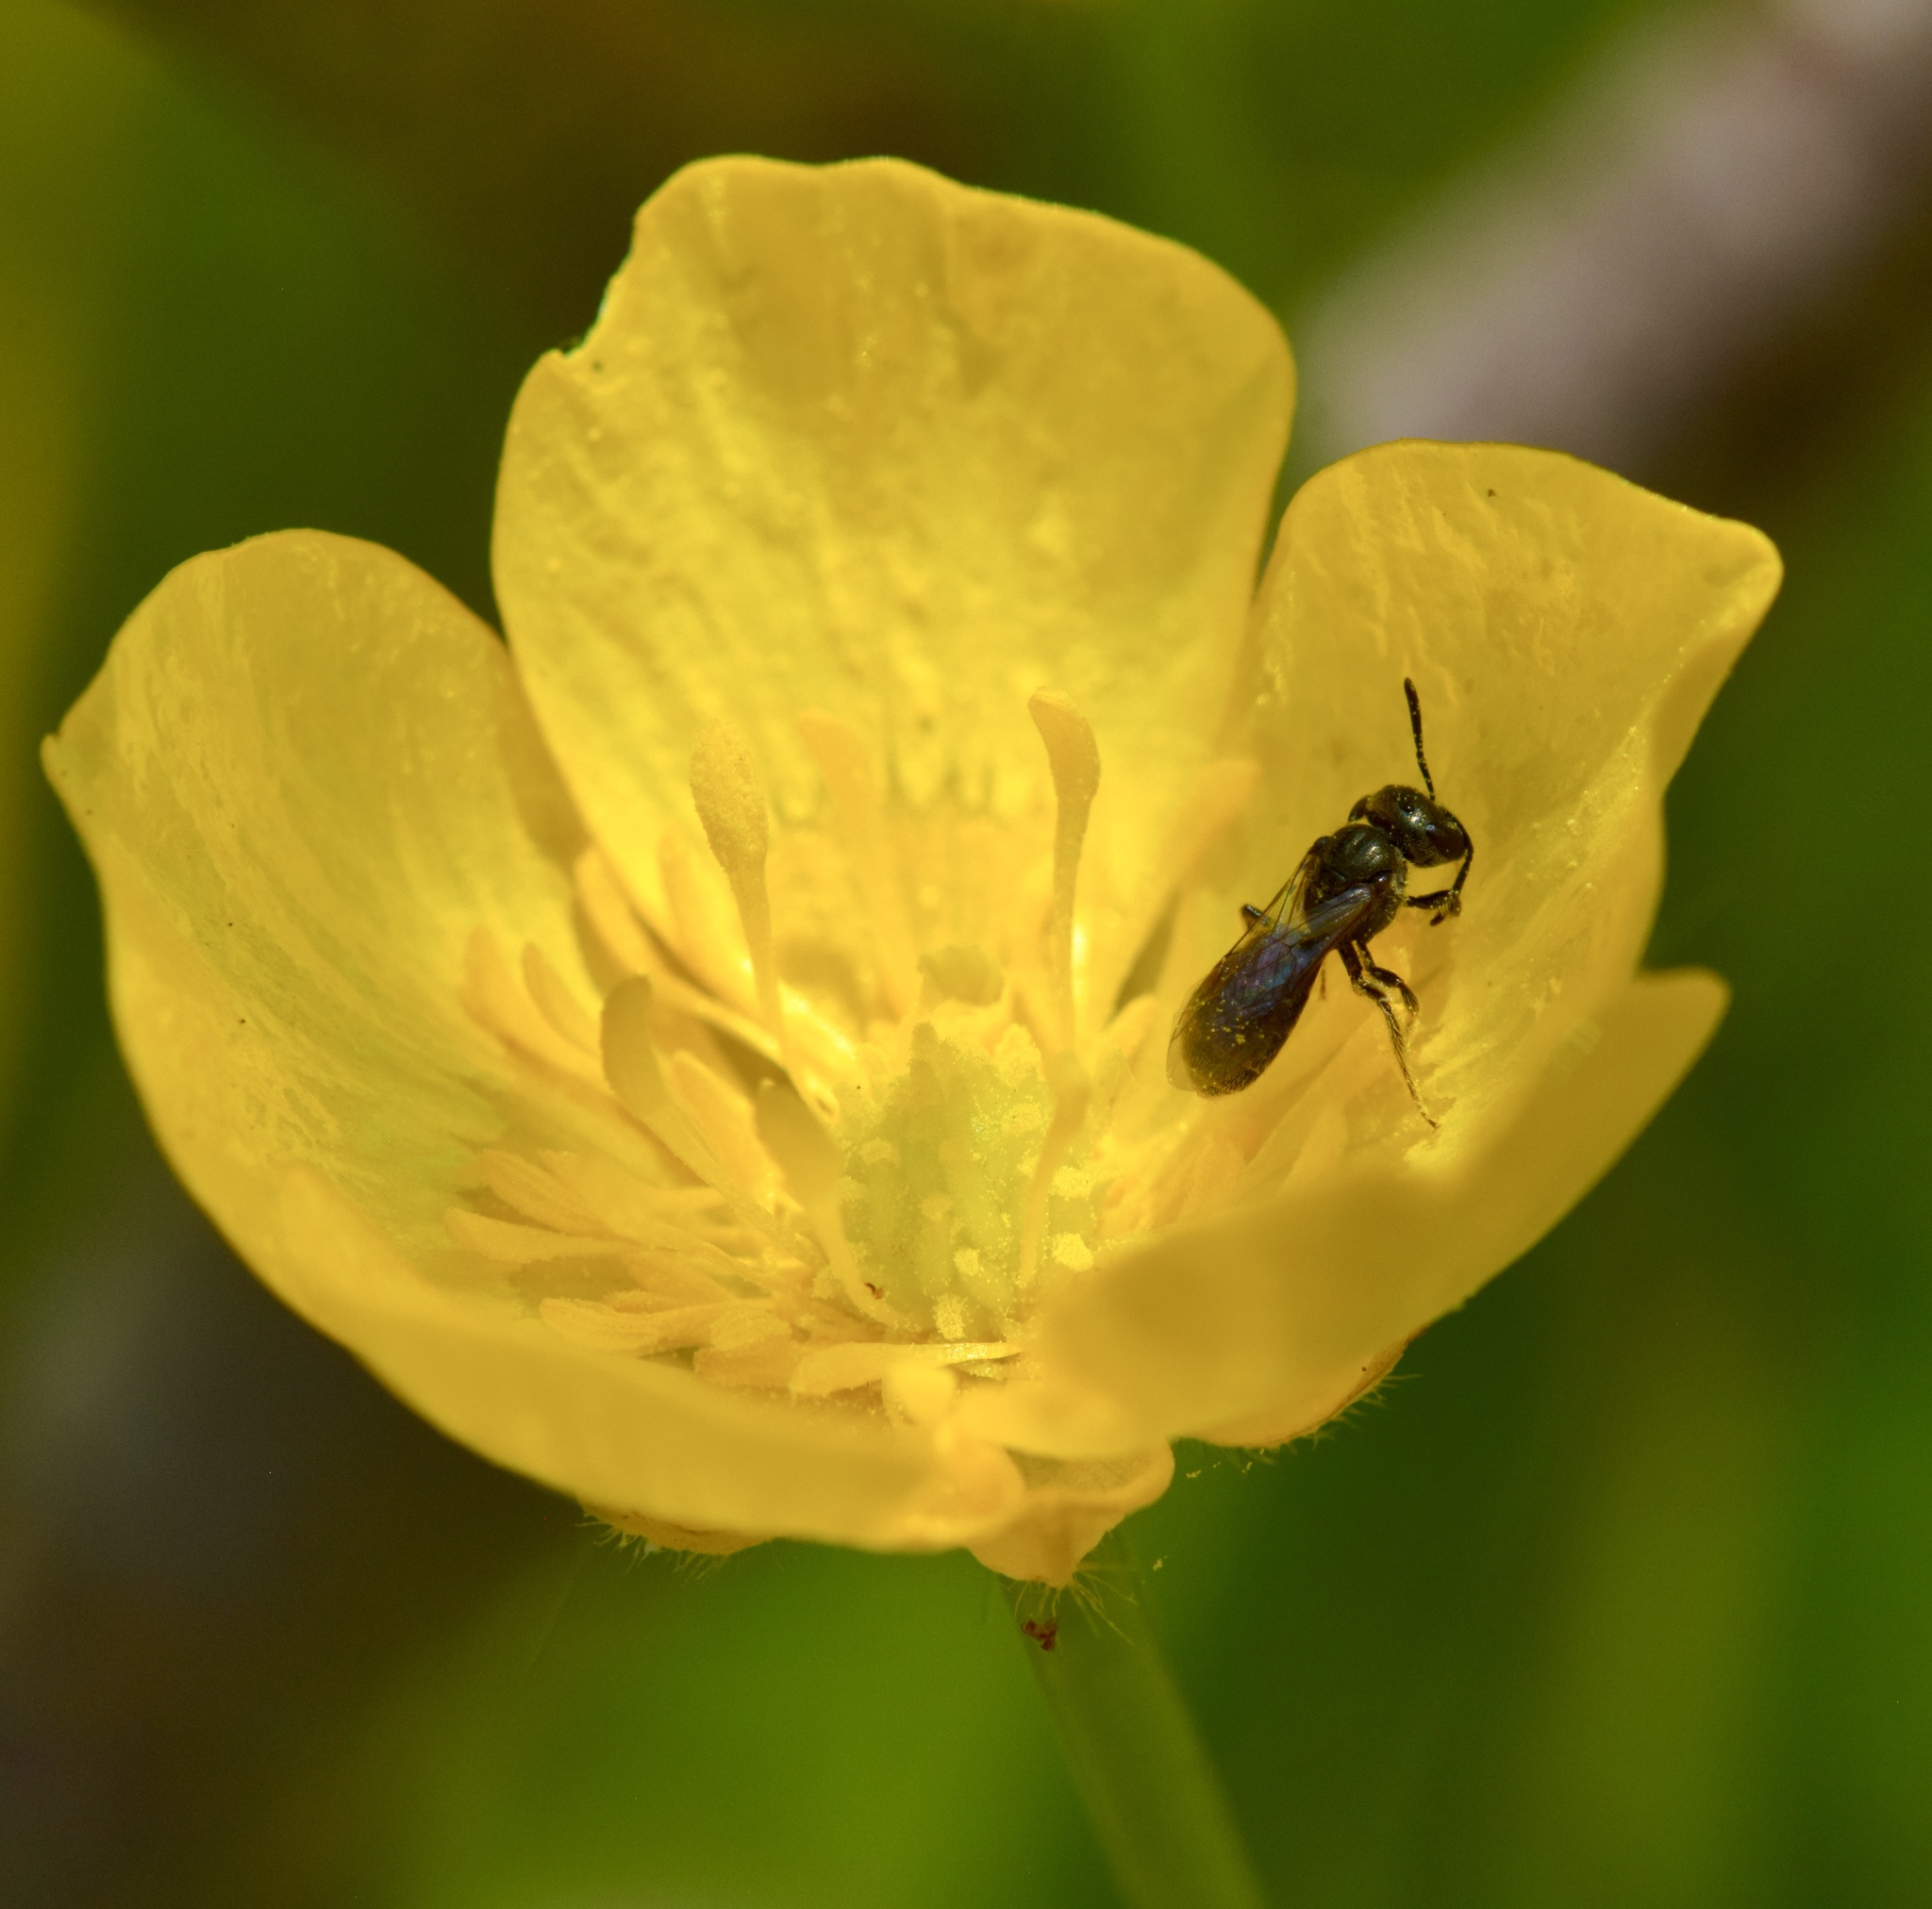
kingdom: Animalia
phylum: Arthropoda
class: Insecta
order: Hymenoptera
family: Halictidae
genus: Lasioglossum
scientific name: Lasioglossum imitatum
